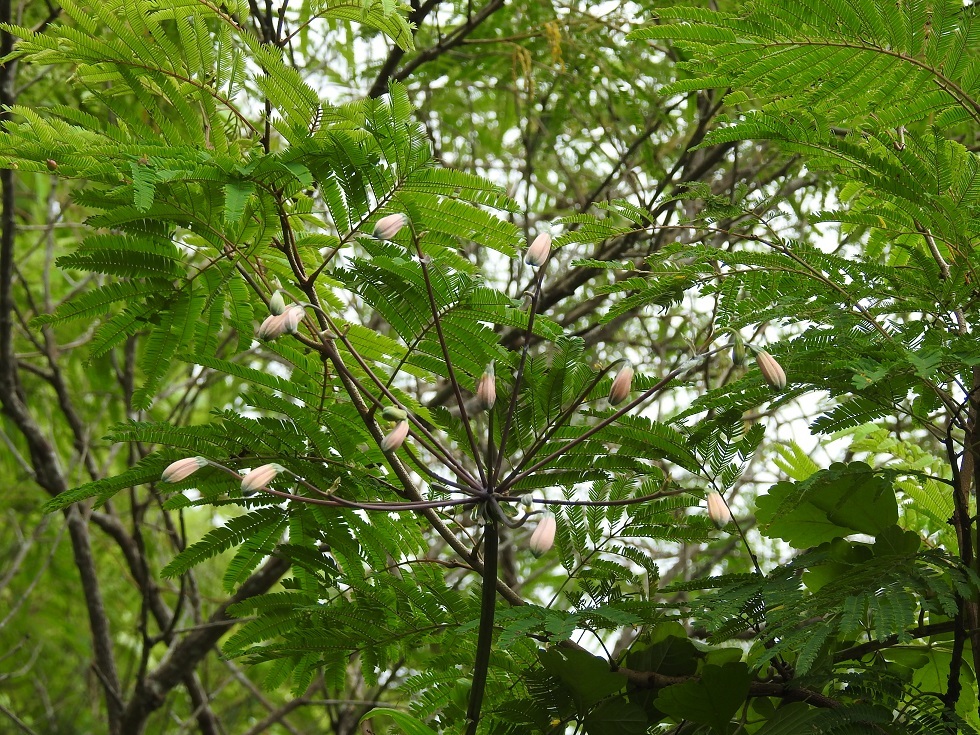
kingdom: Plantae
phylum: Tracheophyta
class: Liliopsida
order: Liliales
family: Alstroemeriaceae
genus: Bomarea
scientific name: Bomarea edulis
